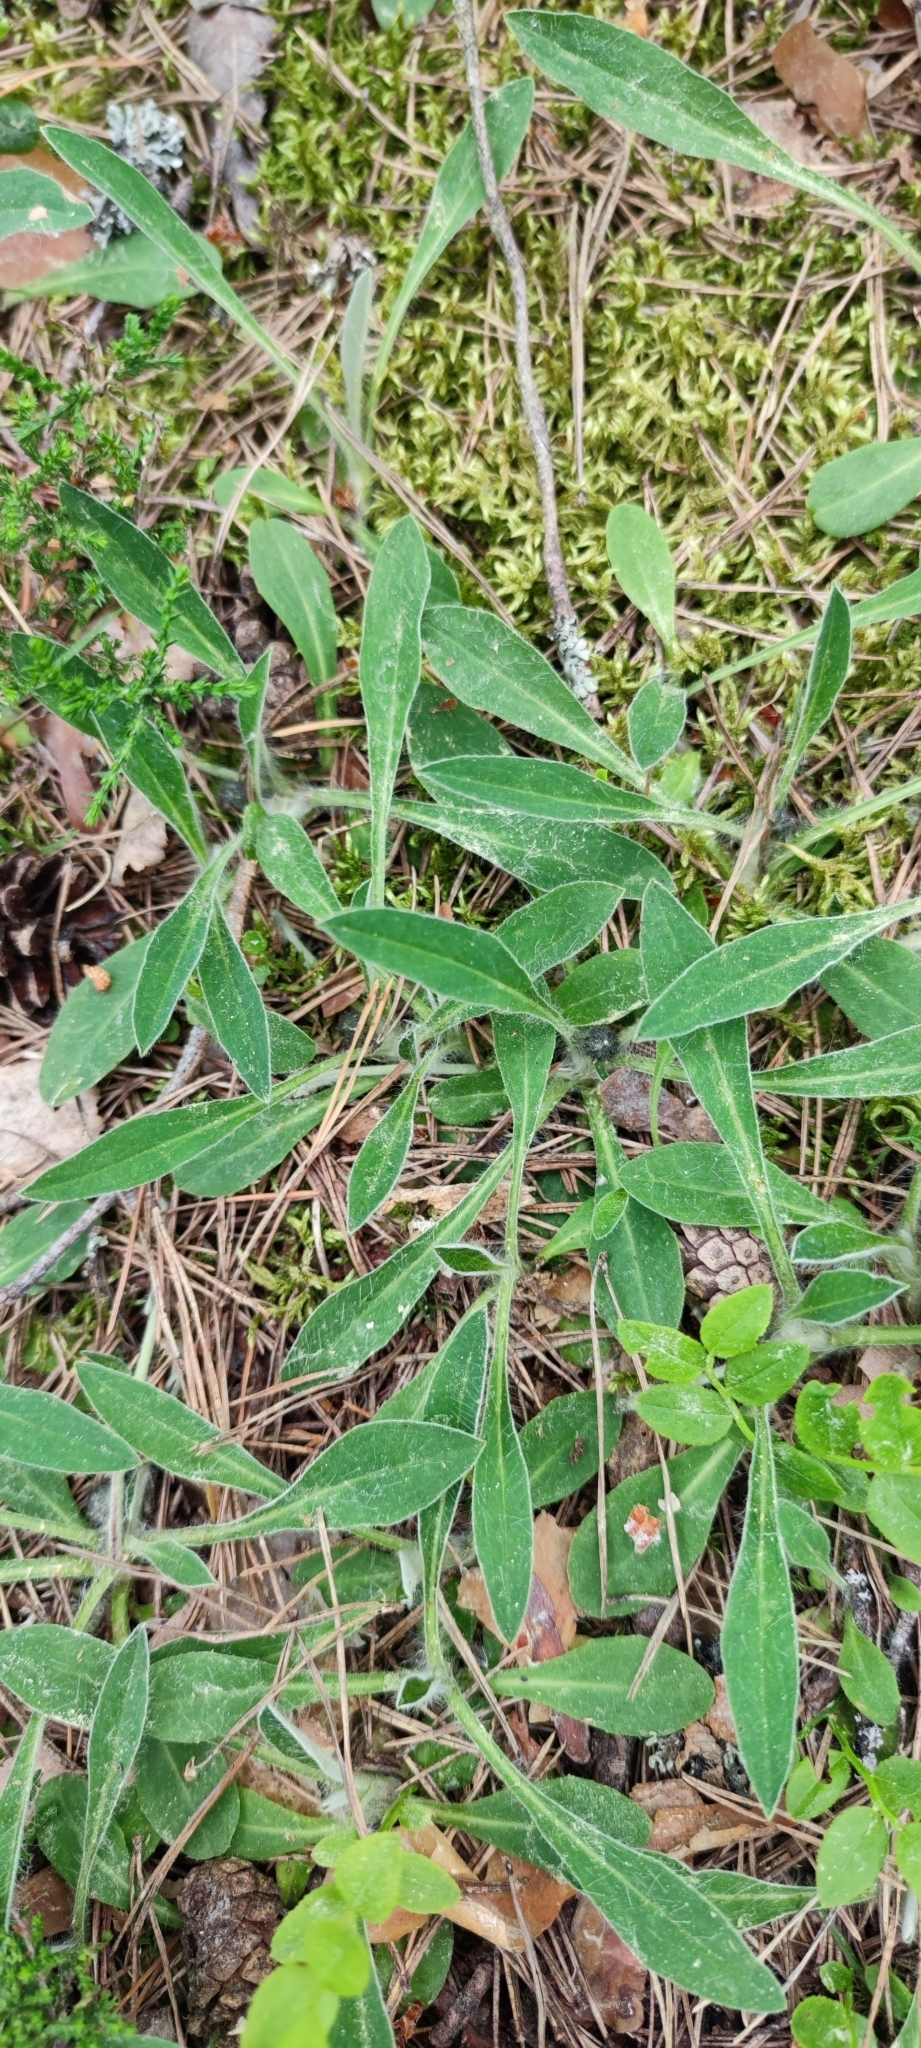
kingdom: Plantae
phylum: Tracheophyta
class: Magnoliopsida
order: Asterales
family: Asteraceae
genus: Pilosella
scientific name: Pilosella officinarum
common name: Mouse-ear hawkweed
